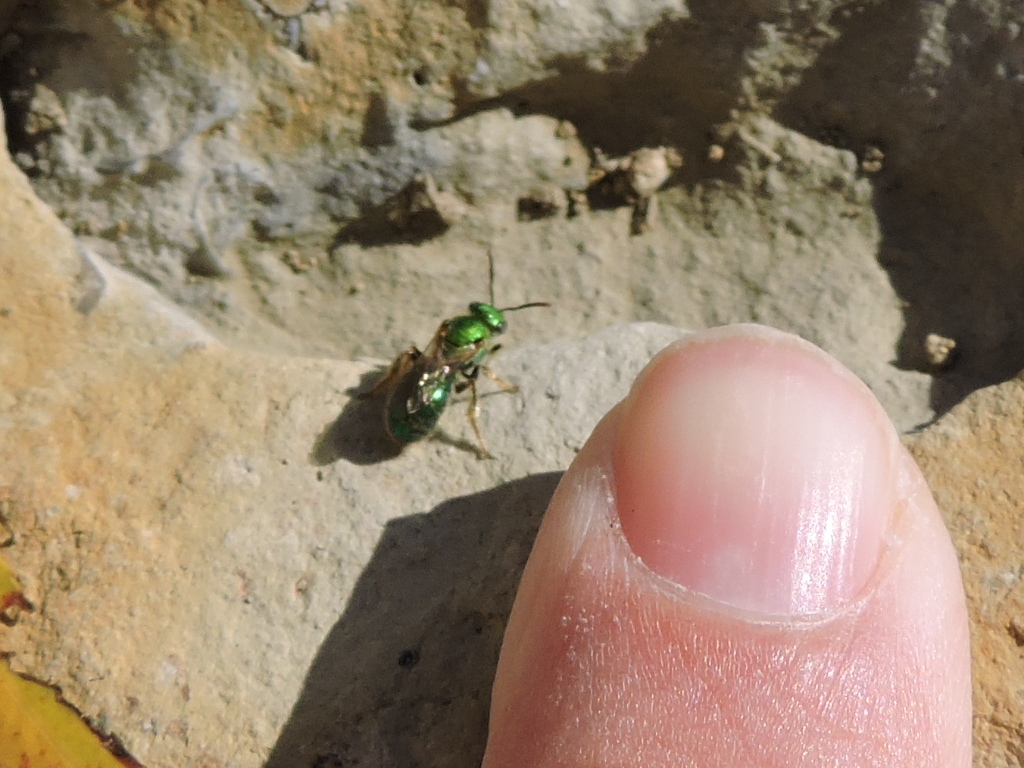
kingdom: Animalia
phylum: Arthropoda
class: Insecta
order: Hymenoptera
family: Halictidae
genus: Augochlora
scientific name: Augochlora pura
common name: Pure green sweat bee
